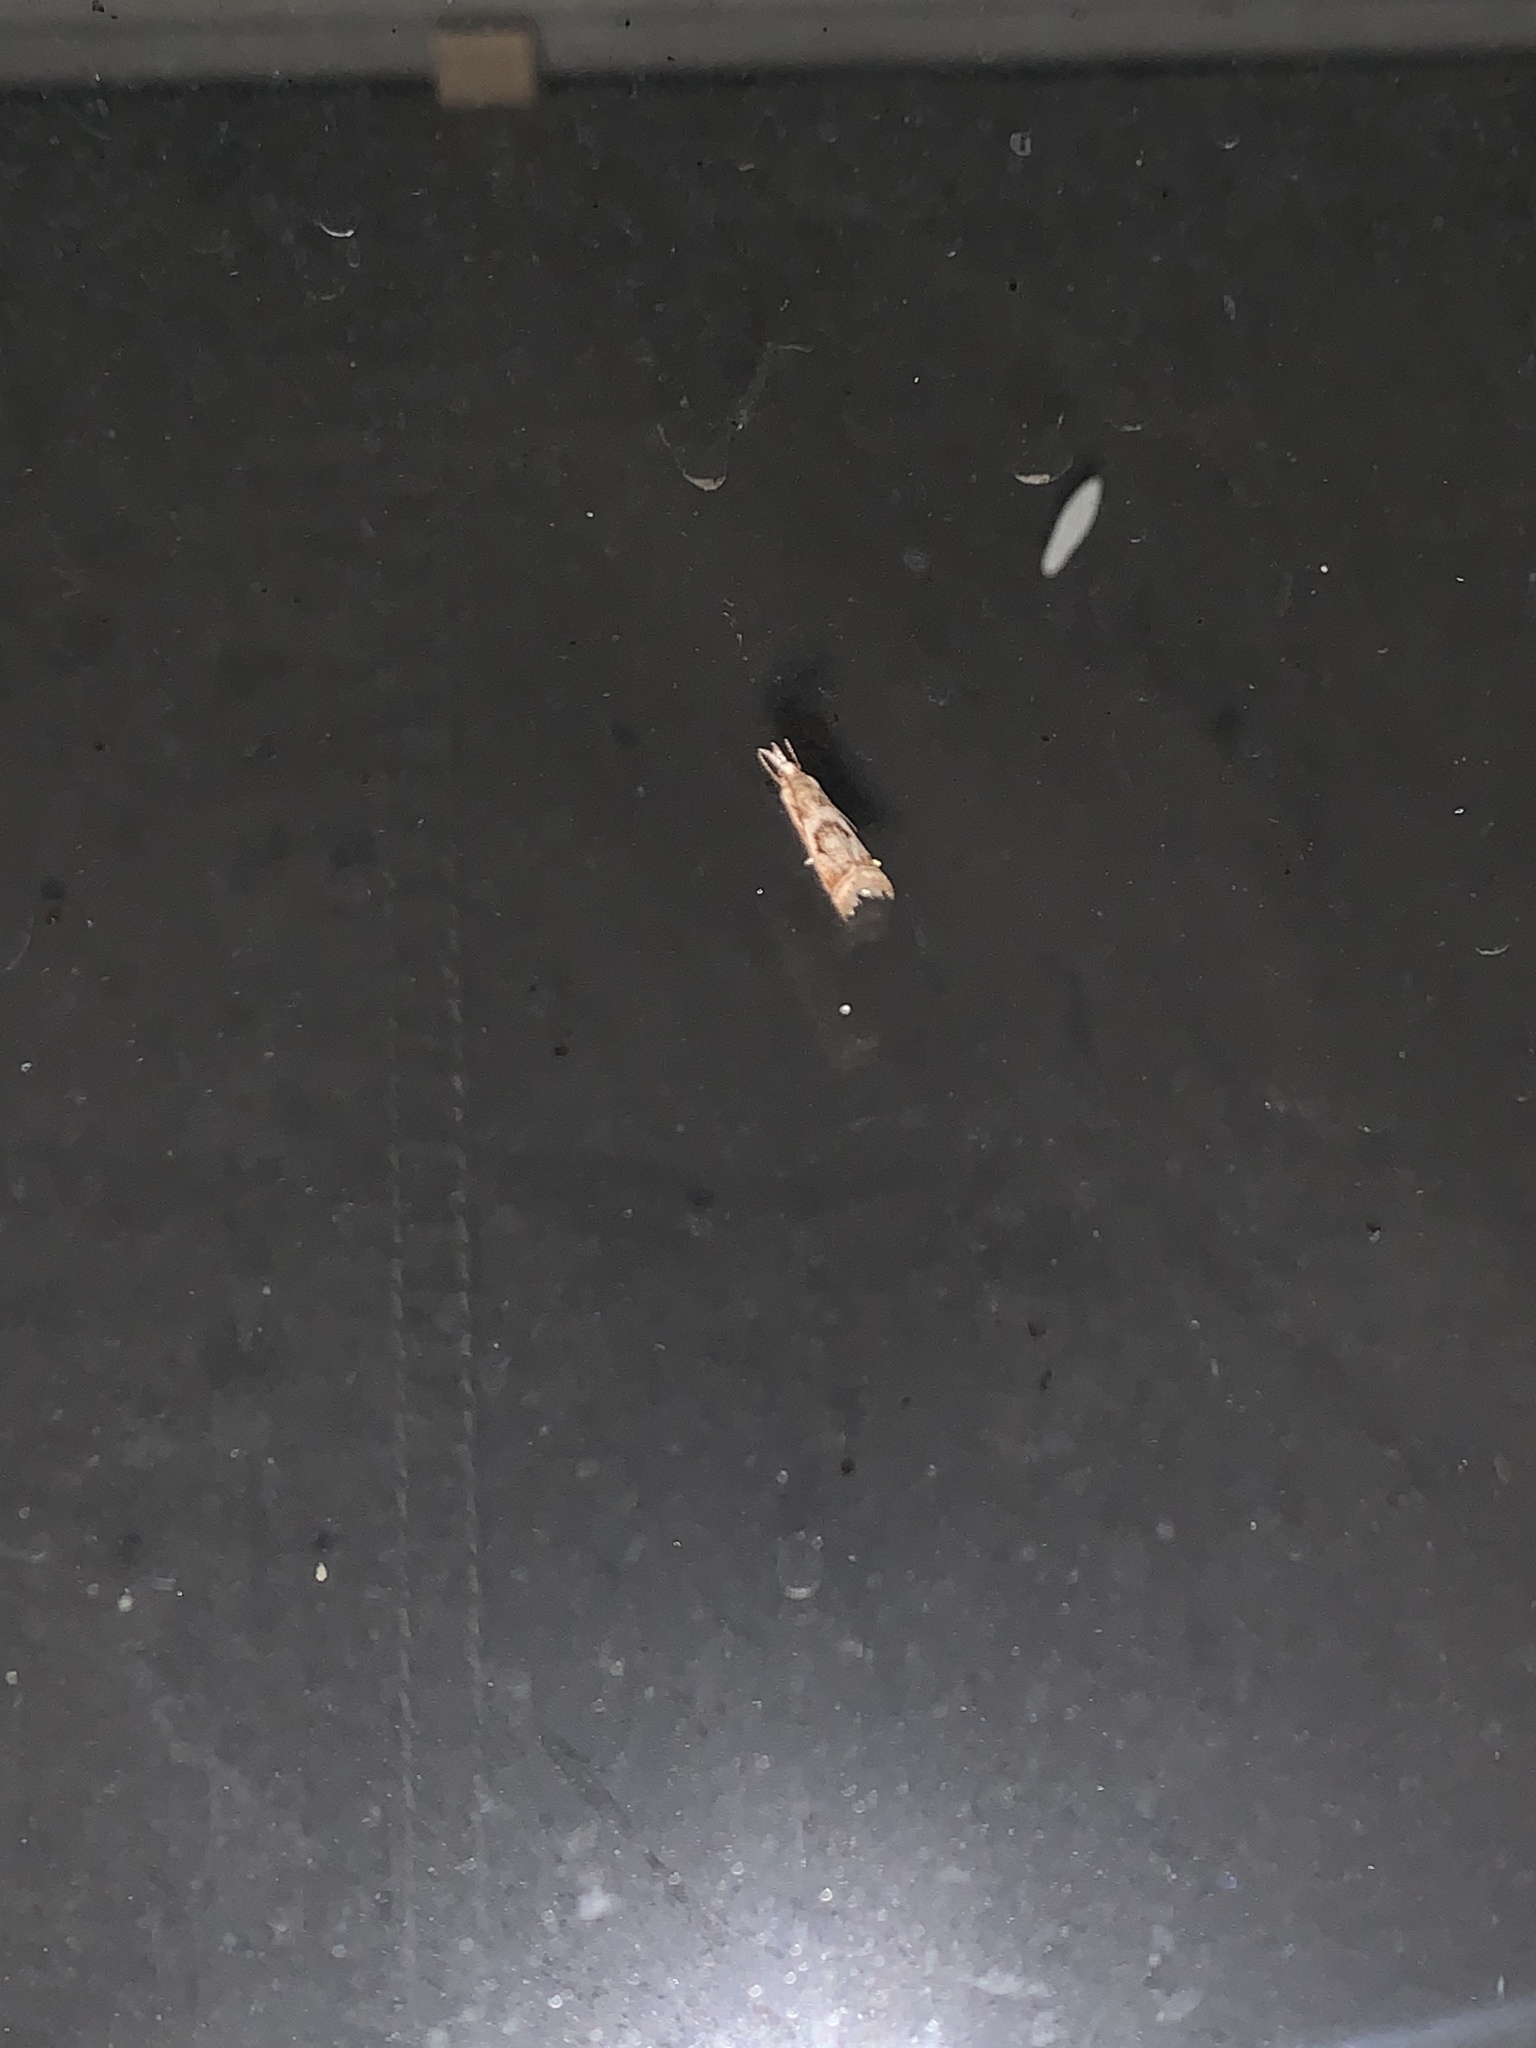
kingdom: Animalia
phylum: Arthropoda
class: Insecta
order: Lepidoptera
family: Crambidae
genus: Microcrambus
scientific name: Microcrambus elegans
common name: Elegant grass-veneer
